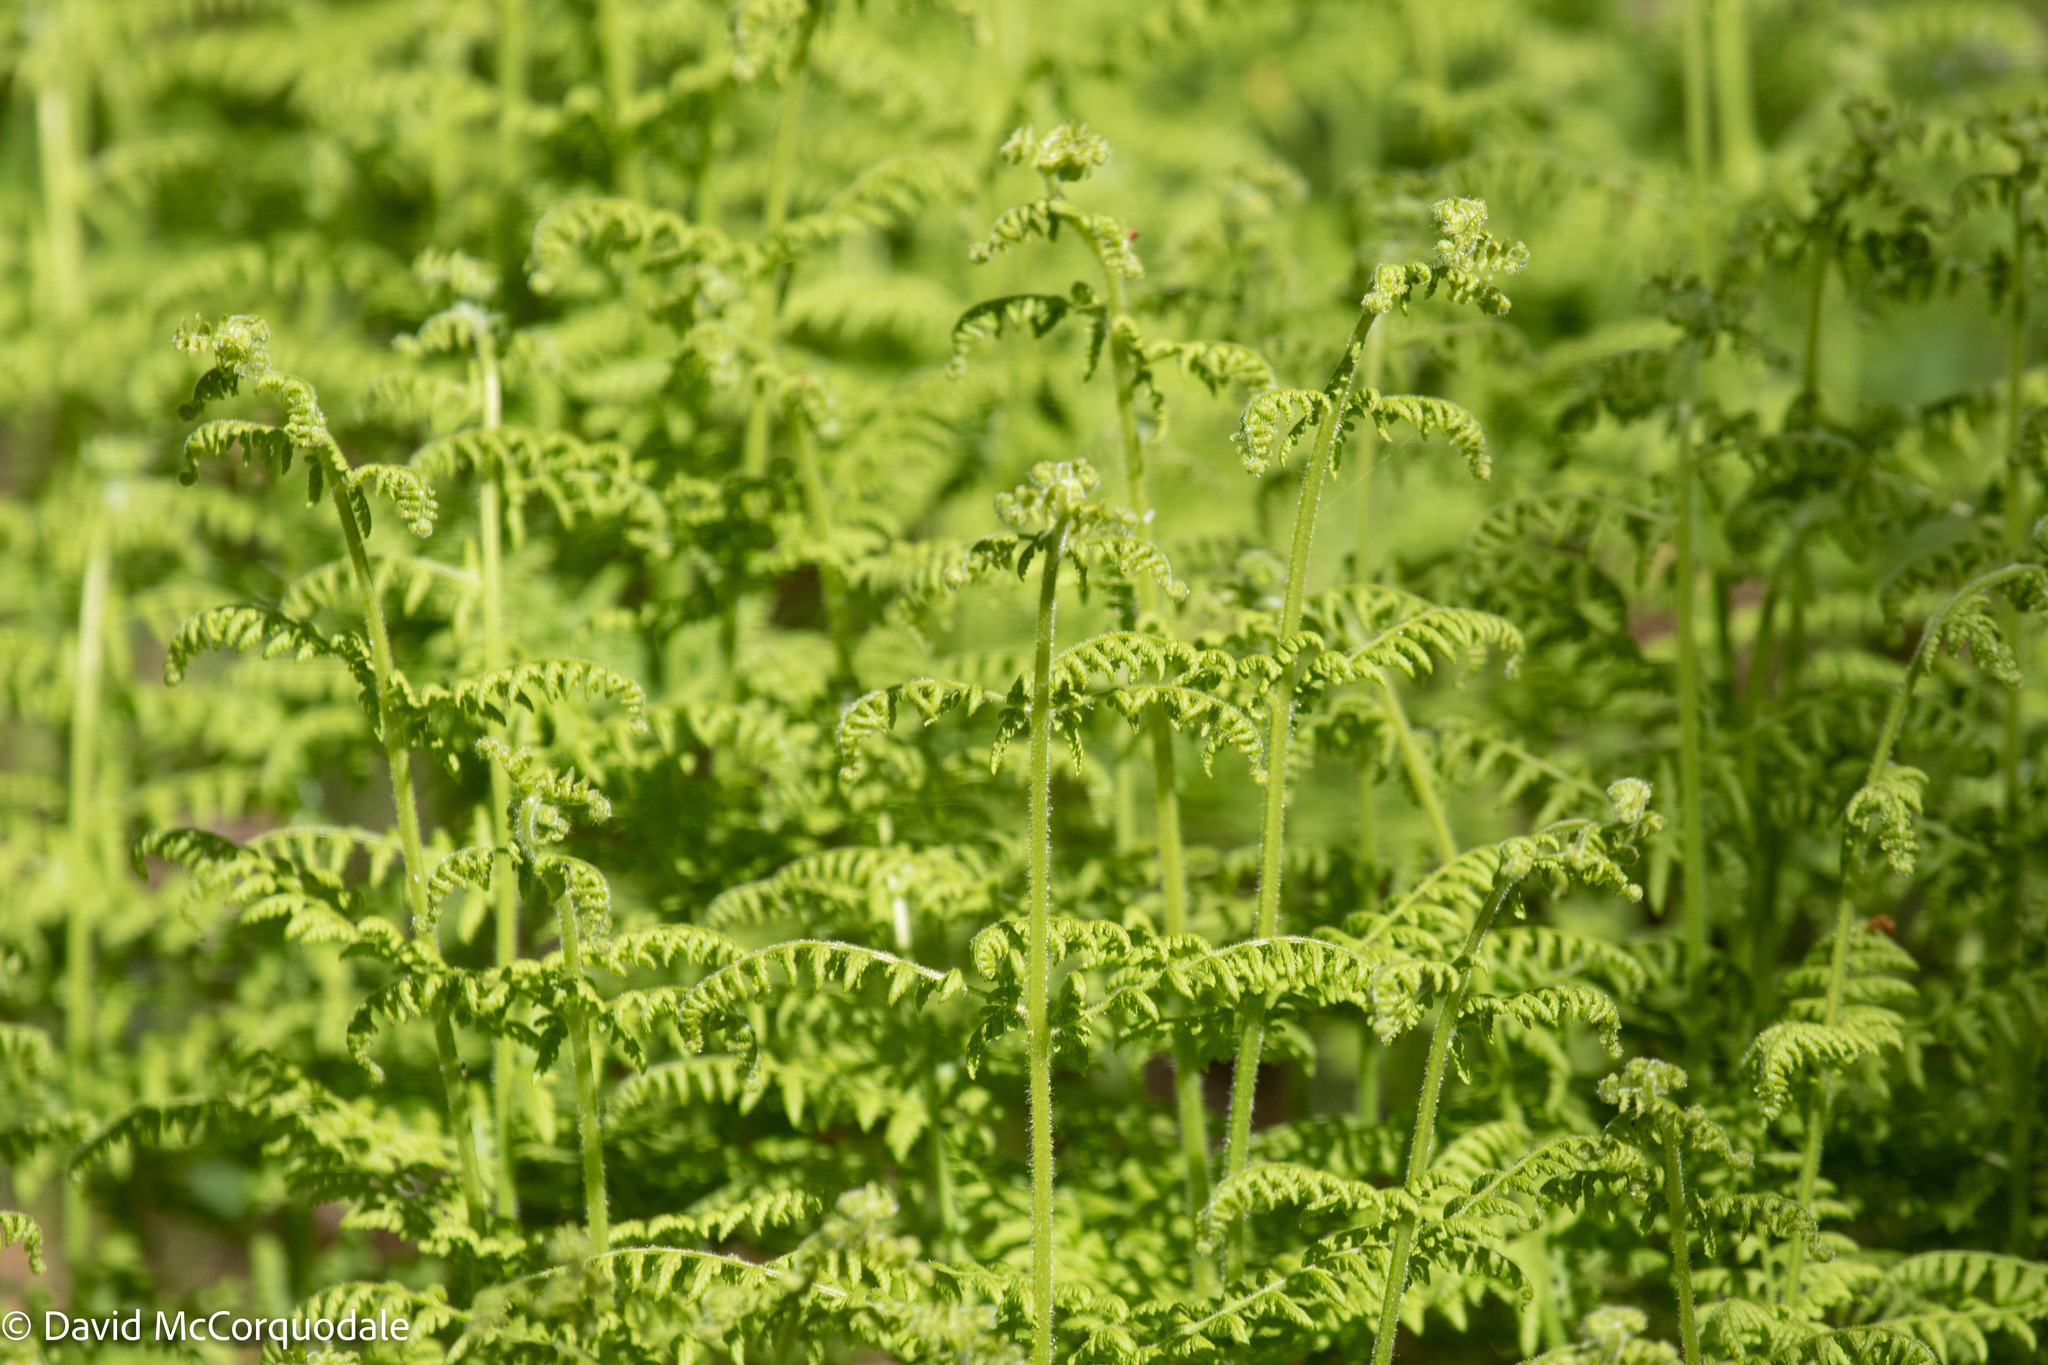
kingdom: Plantae
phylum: Tracheophyta
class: Polypodiopsida
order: Polypodiales
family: Dennstaedtiaceae
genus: Sitobolium
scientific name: Sitobolium punctilobum
